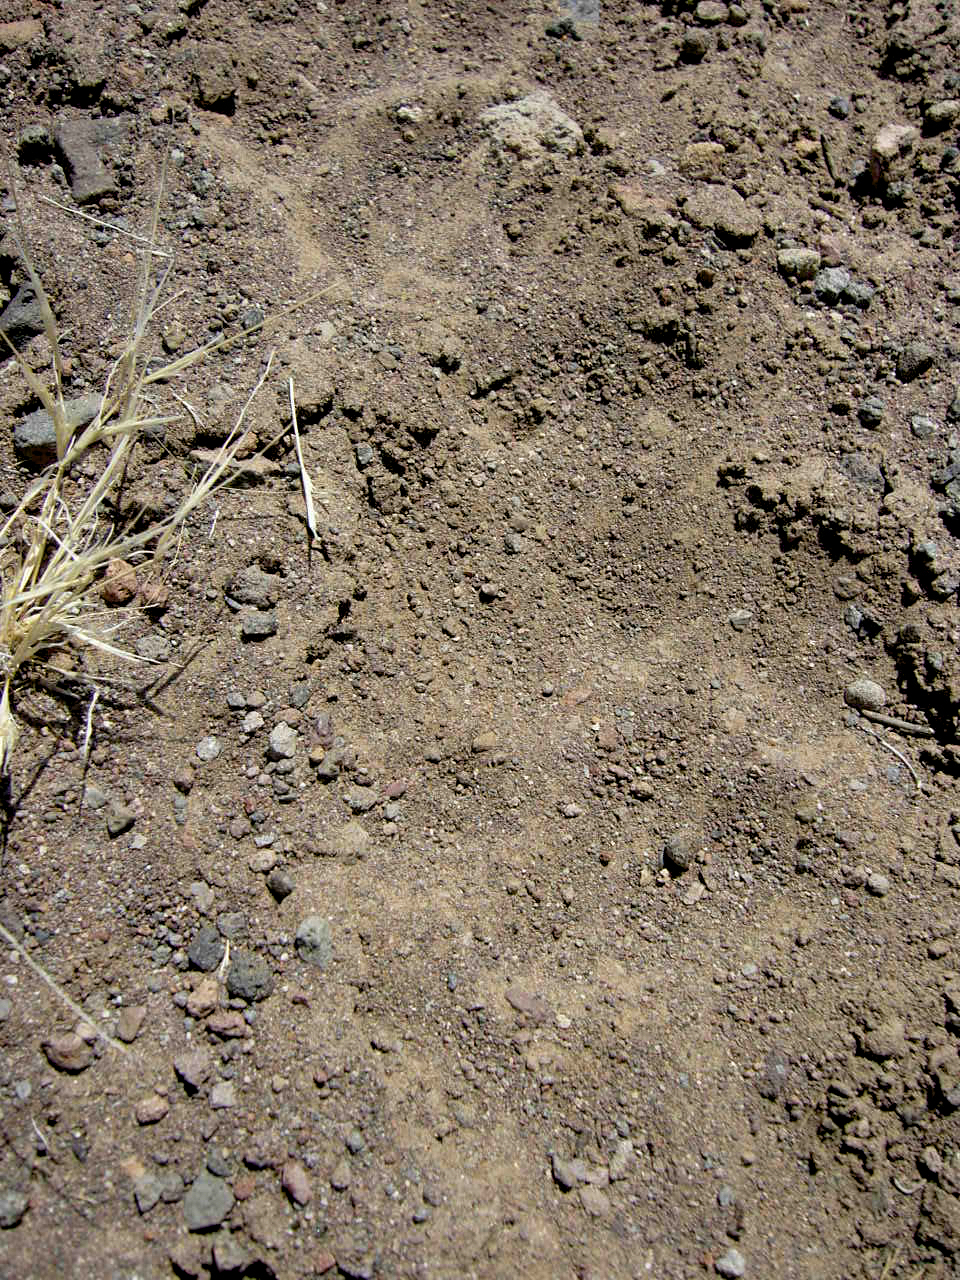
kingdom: Animalia
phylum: Chordata
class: Mammalia
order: Carnivora
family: Felidae
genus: Puma
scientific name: Puma concolor
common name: Puma
